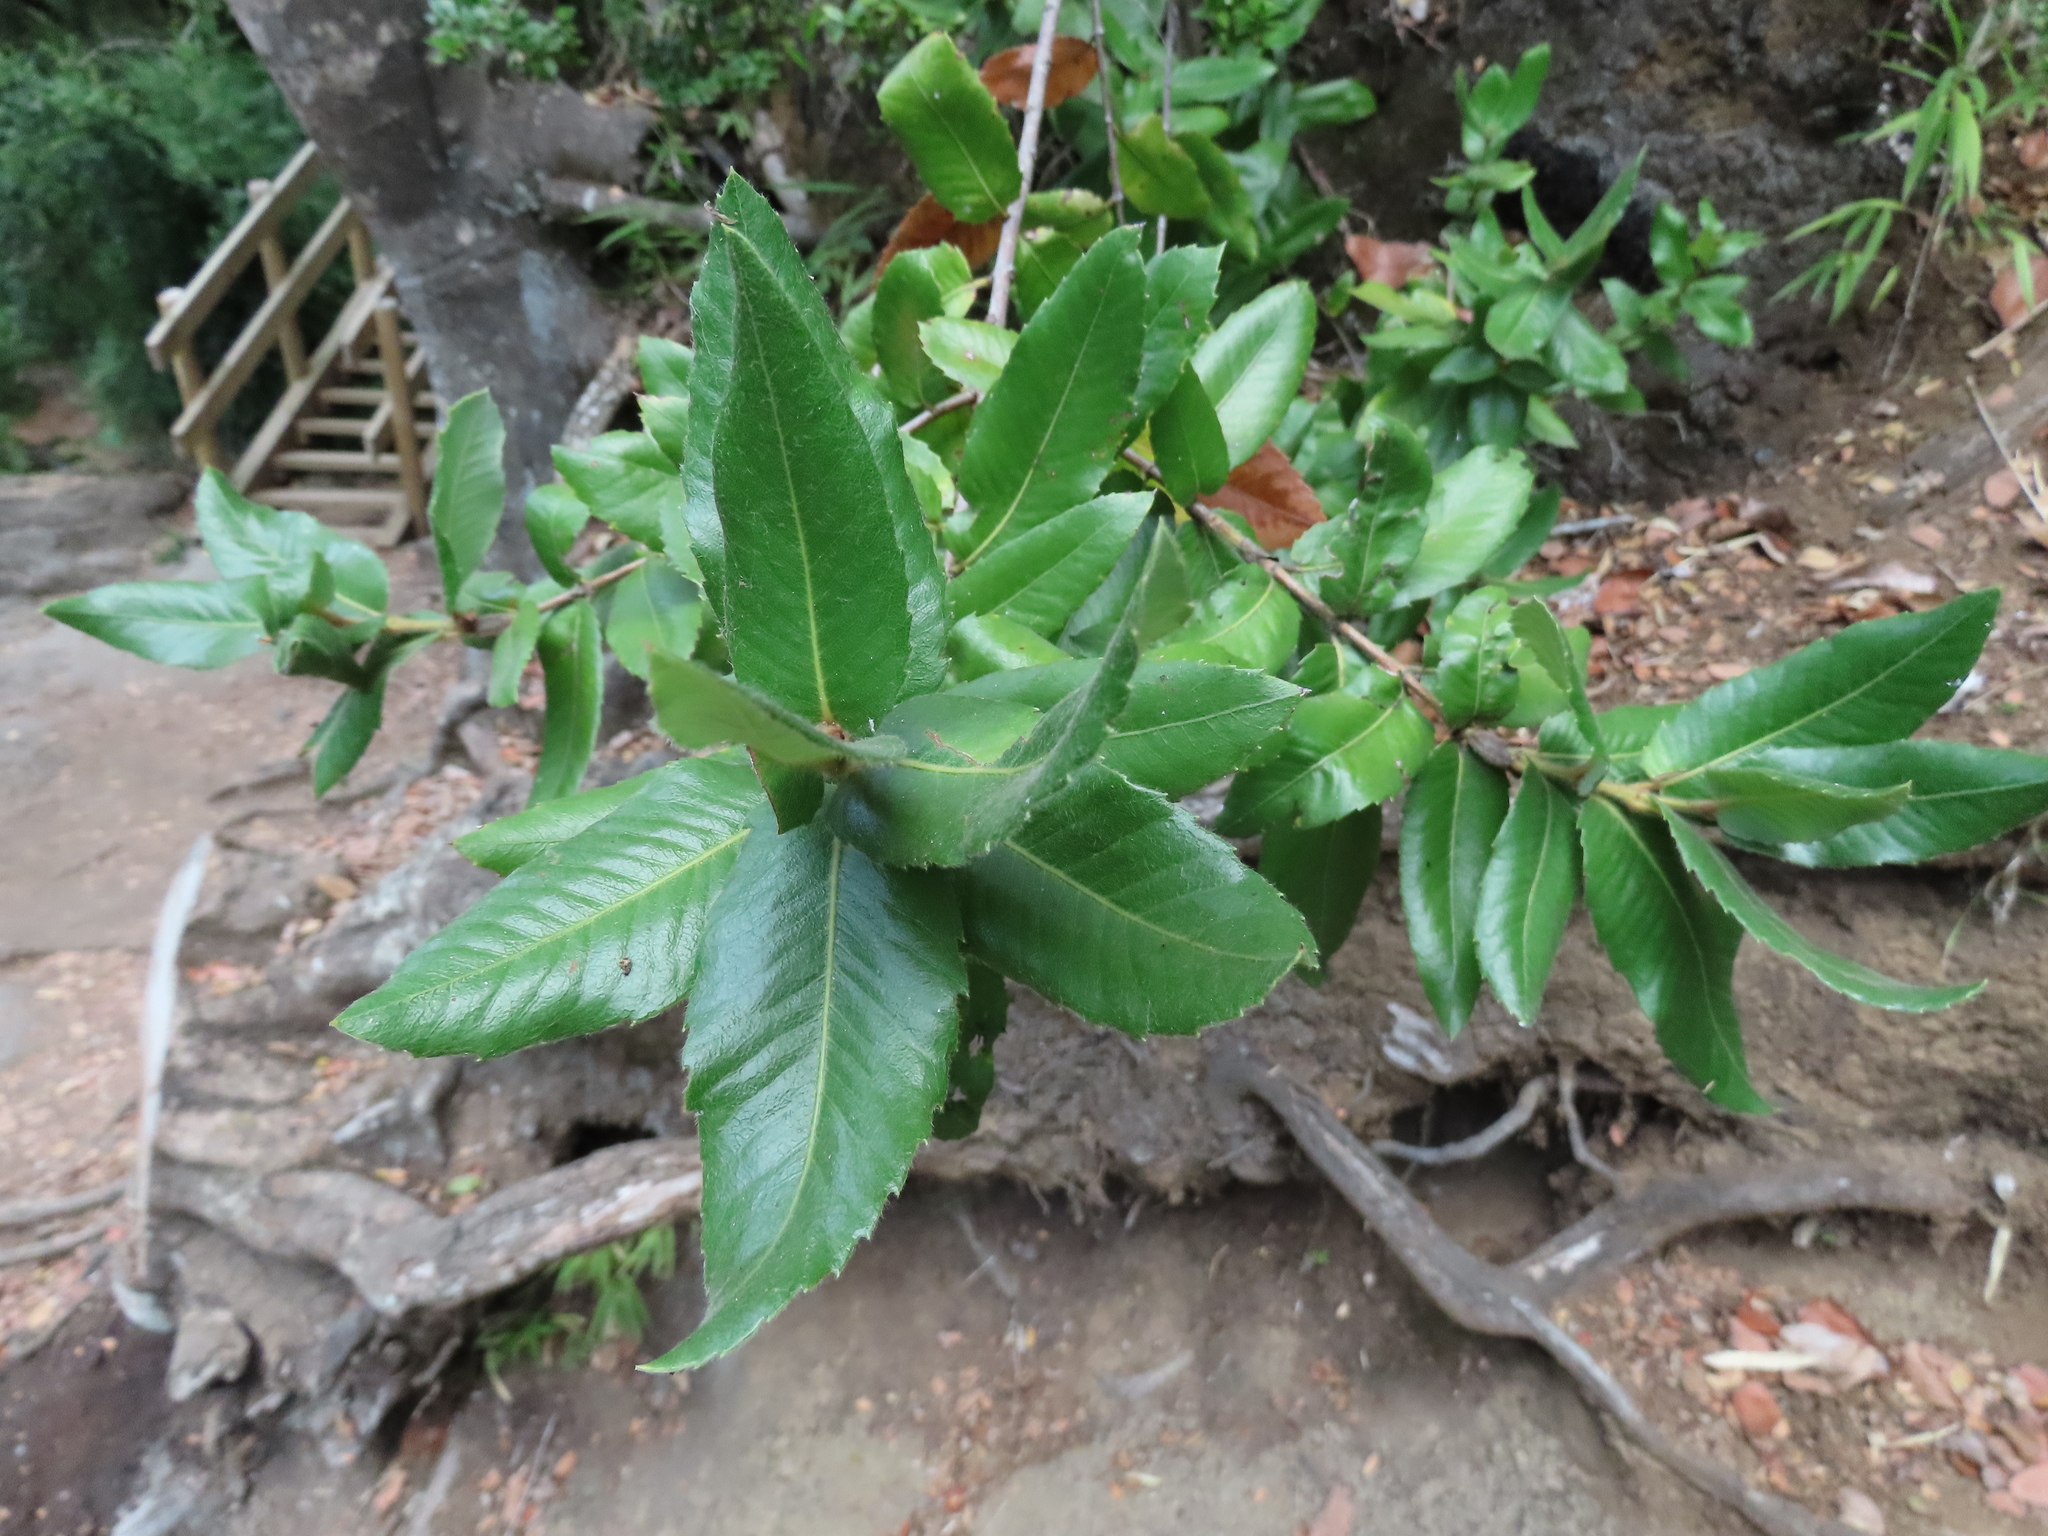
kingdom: Plantae
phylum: Tracheophyta
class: Magnoliopsida
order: Oxalidales
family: Cunoniaceae
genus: Eucryphia
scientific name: Eucryphia cordifolia
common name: Ulmo
